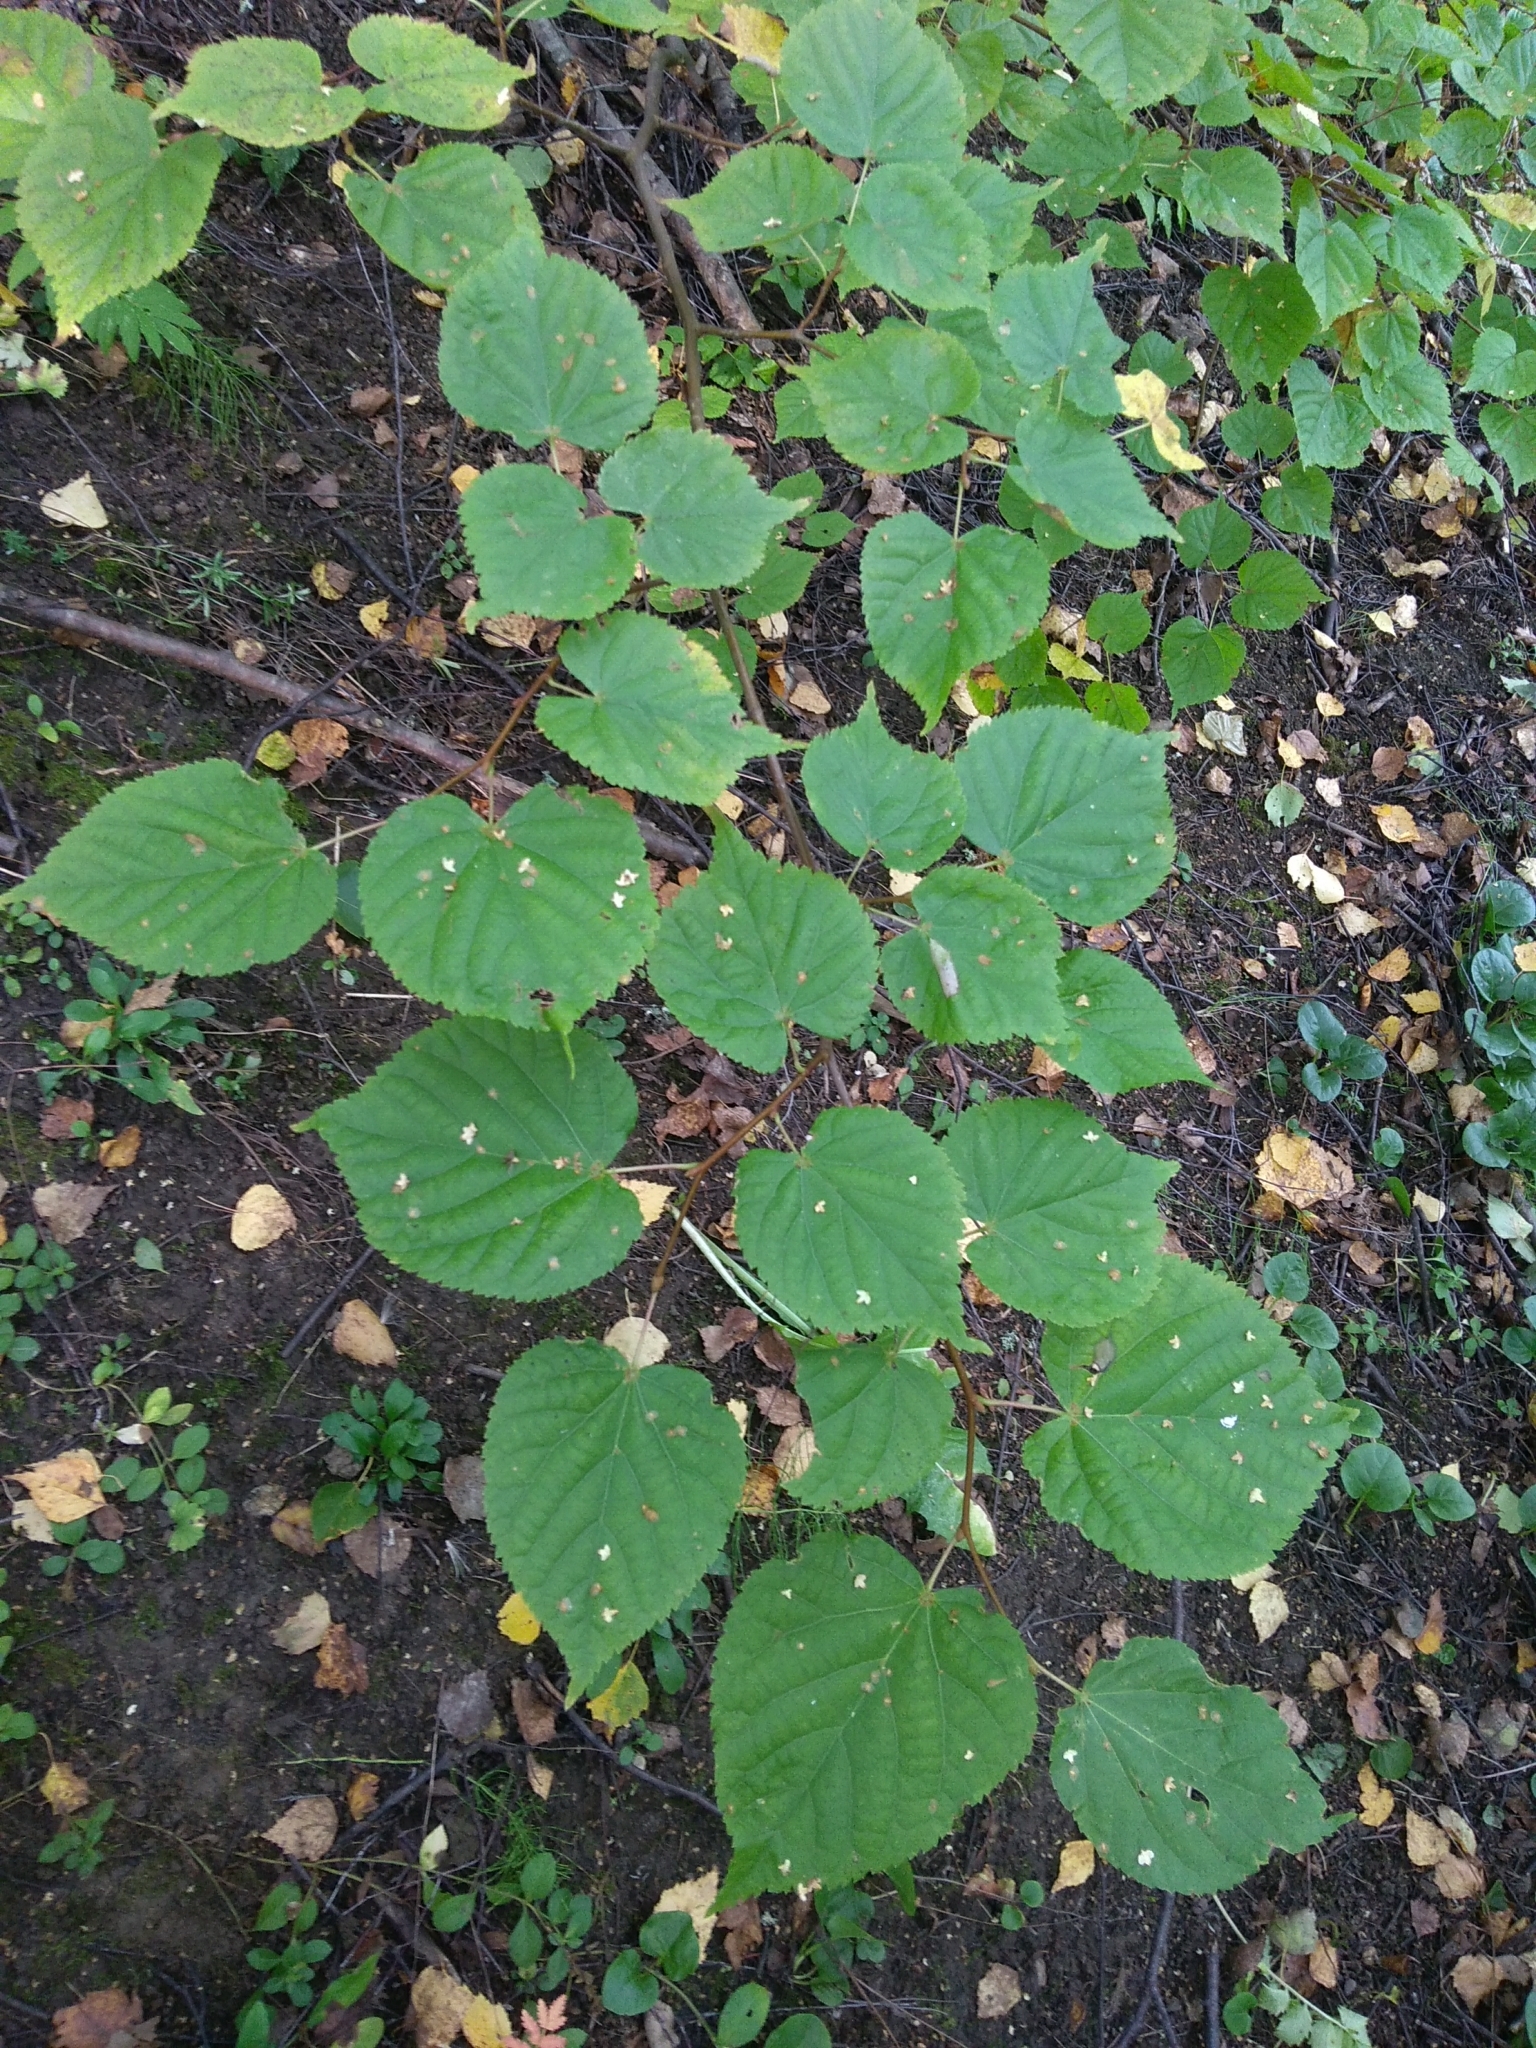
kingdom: Plantae
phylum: Tracheophyta
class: Magnoliopsida
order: Malvales
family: Malvaceae
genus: Tilia
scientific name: Tilia cordata
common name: Small-leaved lime
